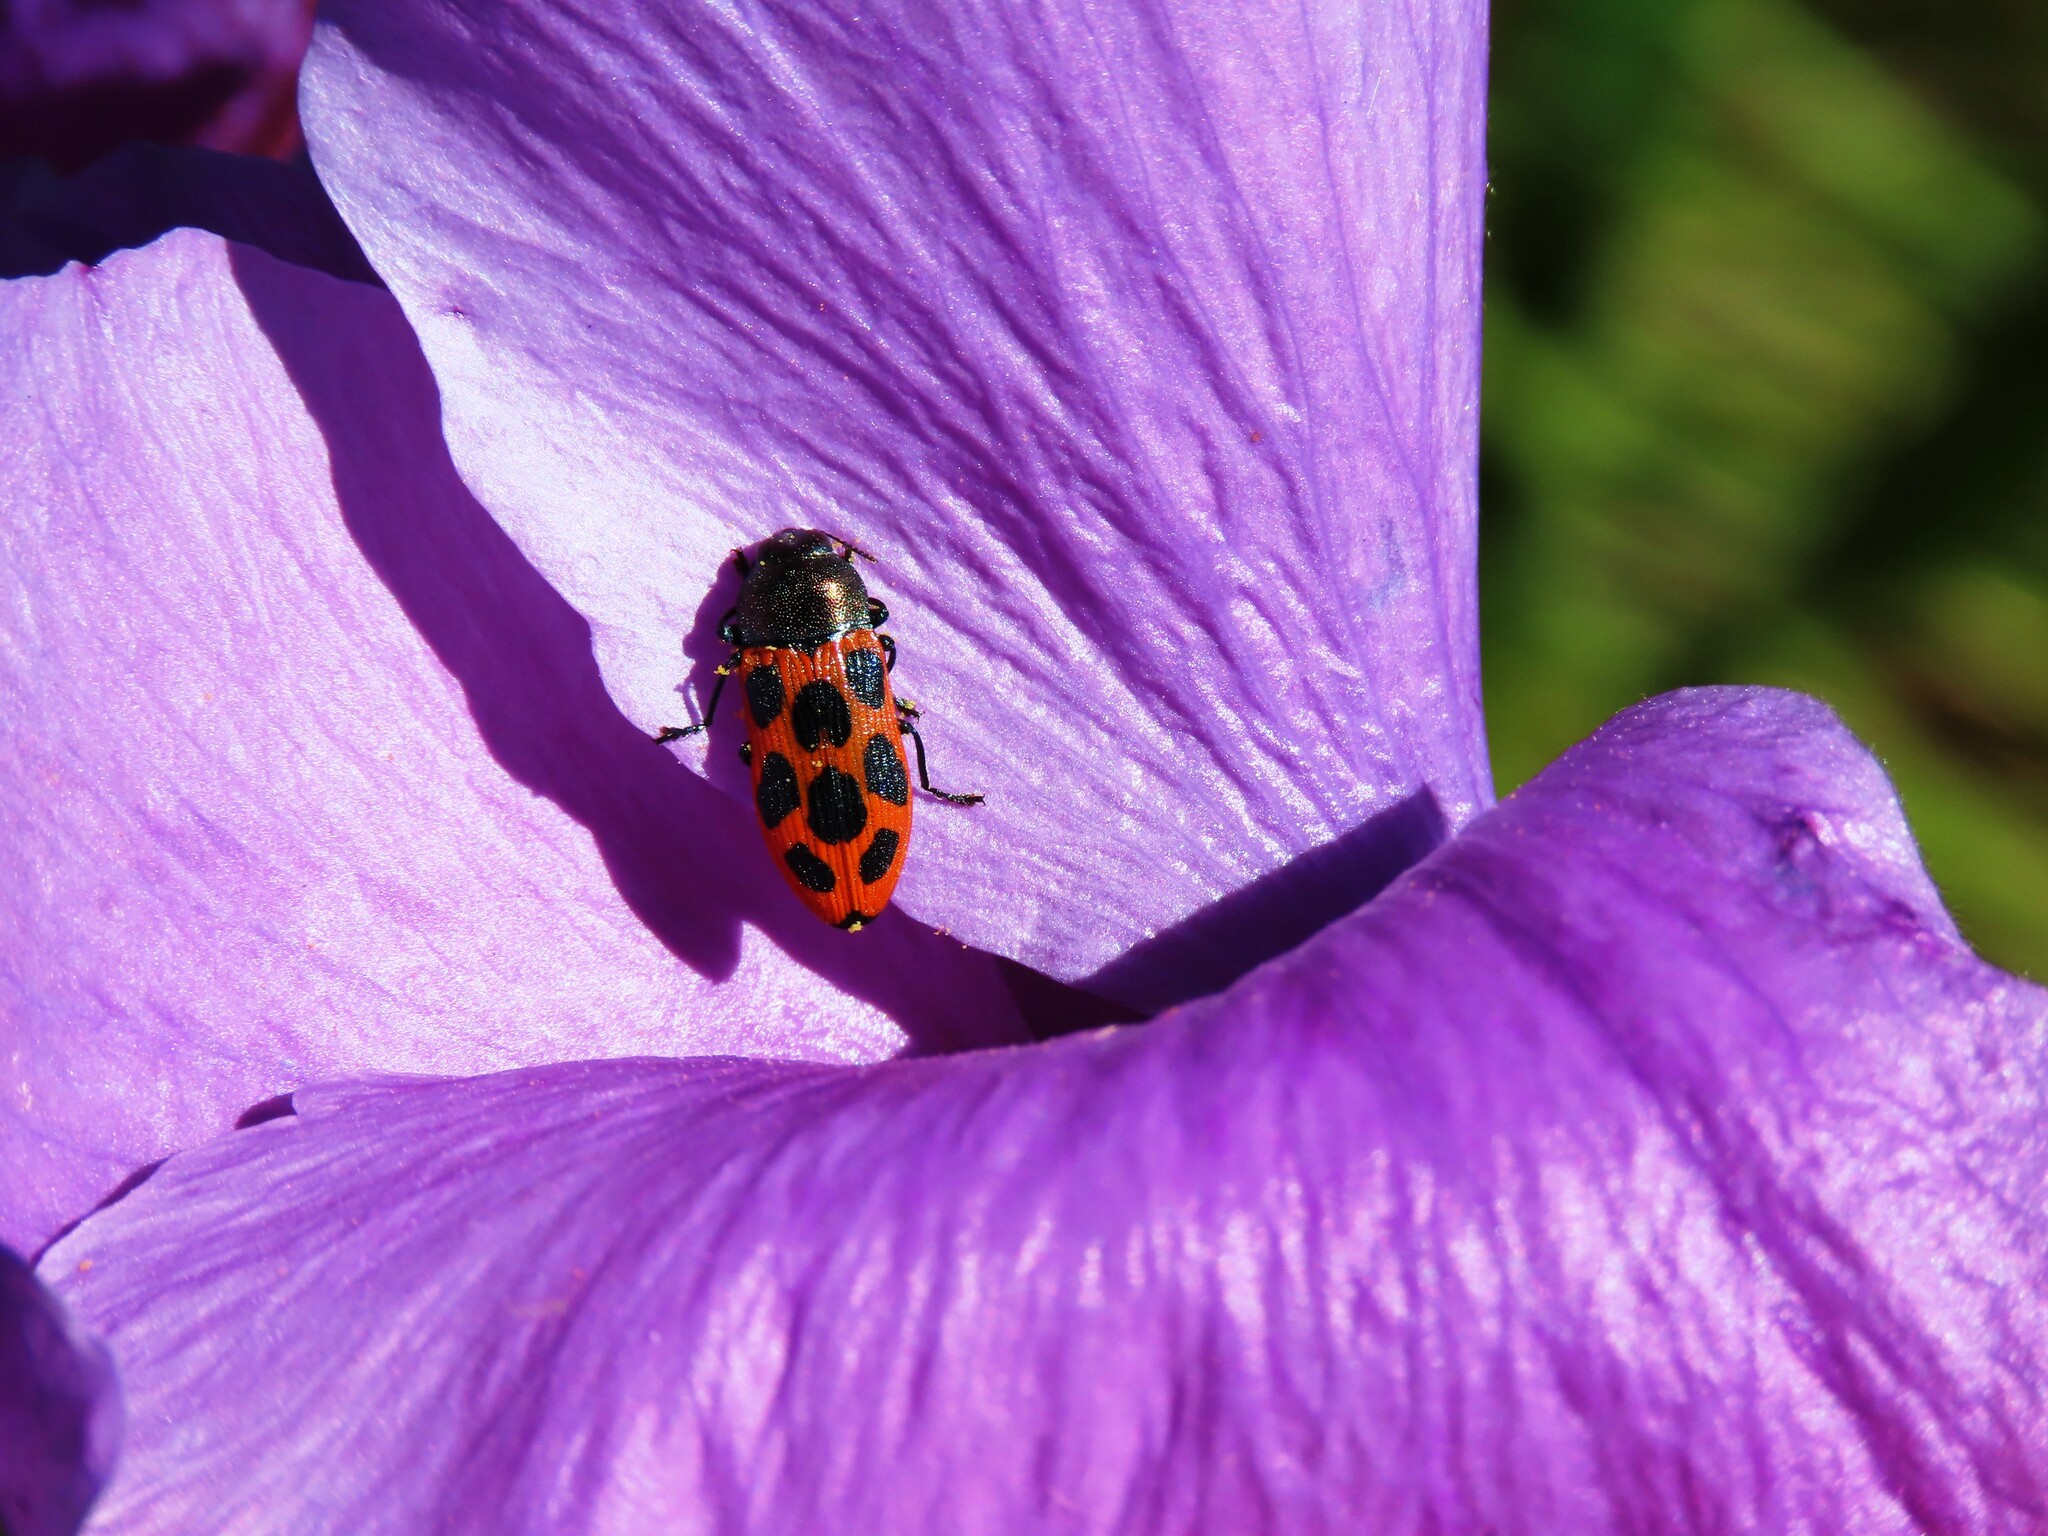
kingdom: Animalia
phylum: Arthropoda
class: Insecta
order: Coleoptera
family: Buprestidae
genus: Castiarina
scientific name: Castiarina octomaculata
